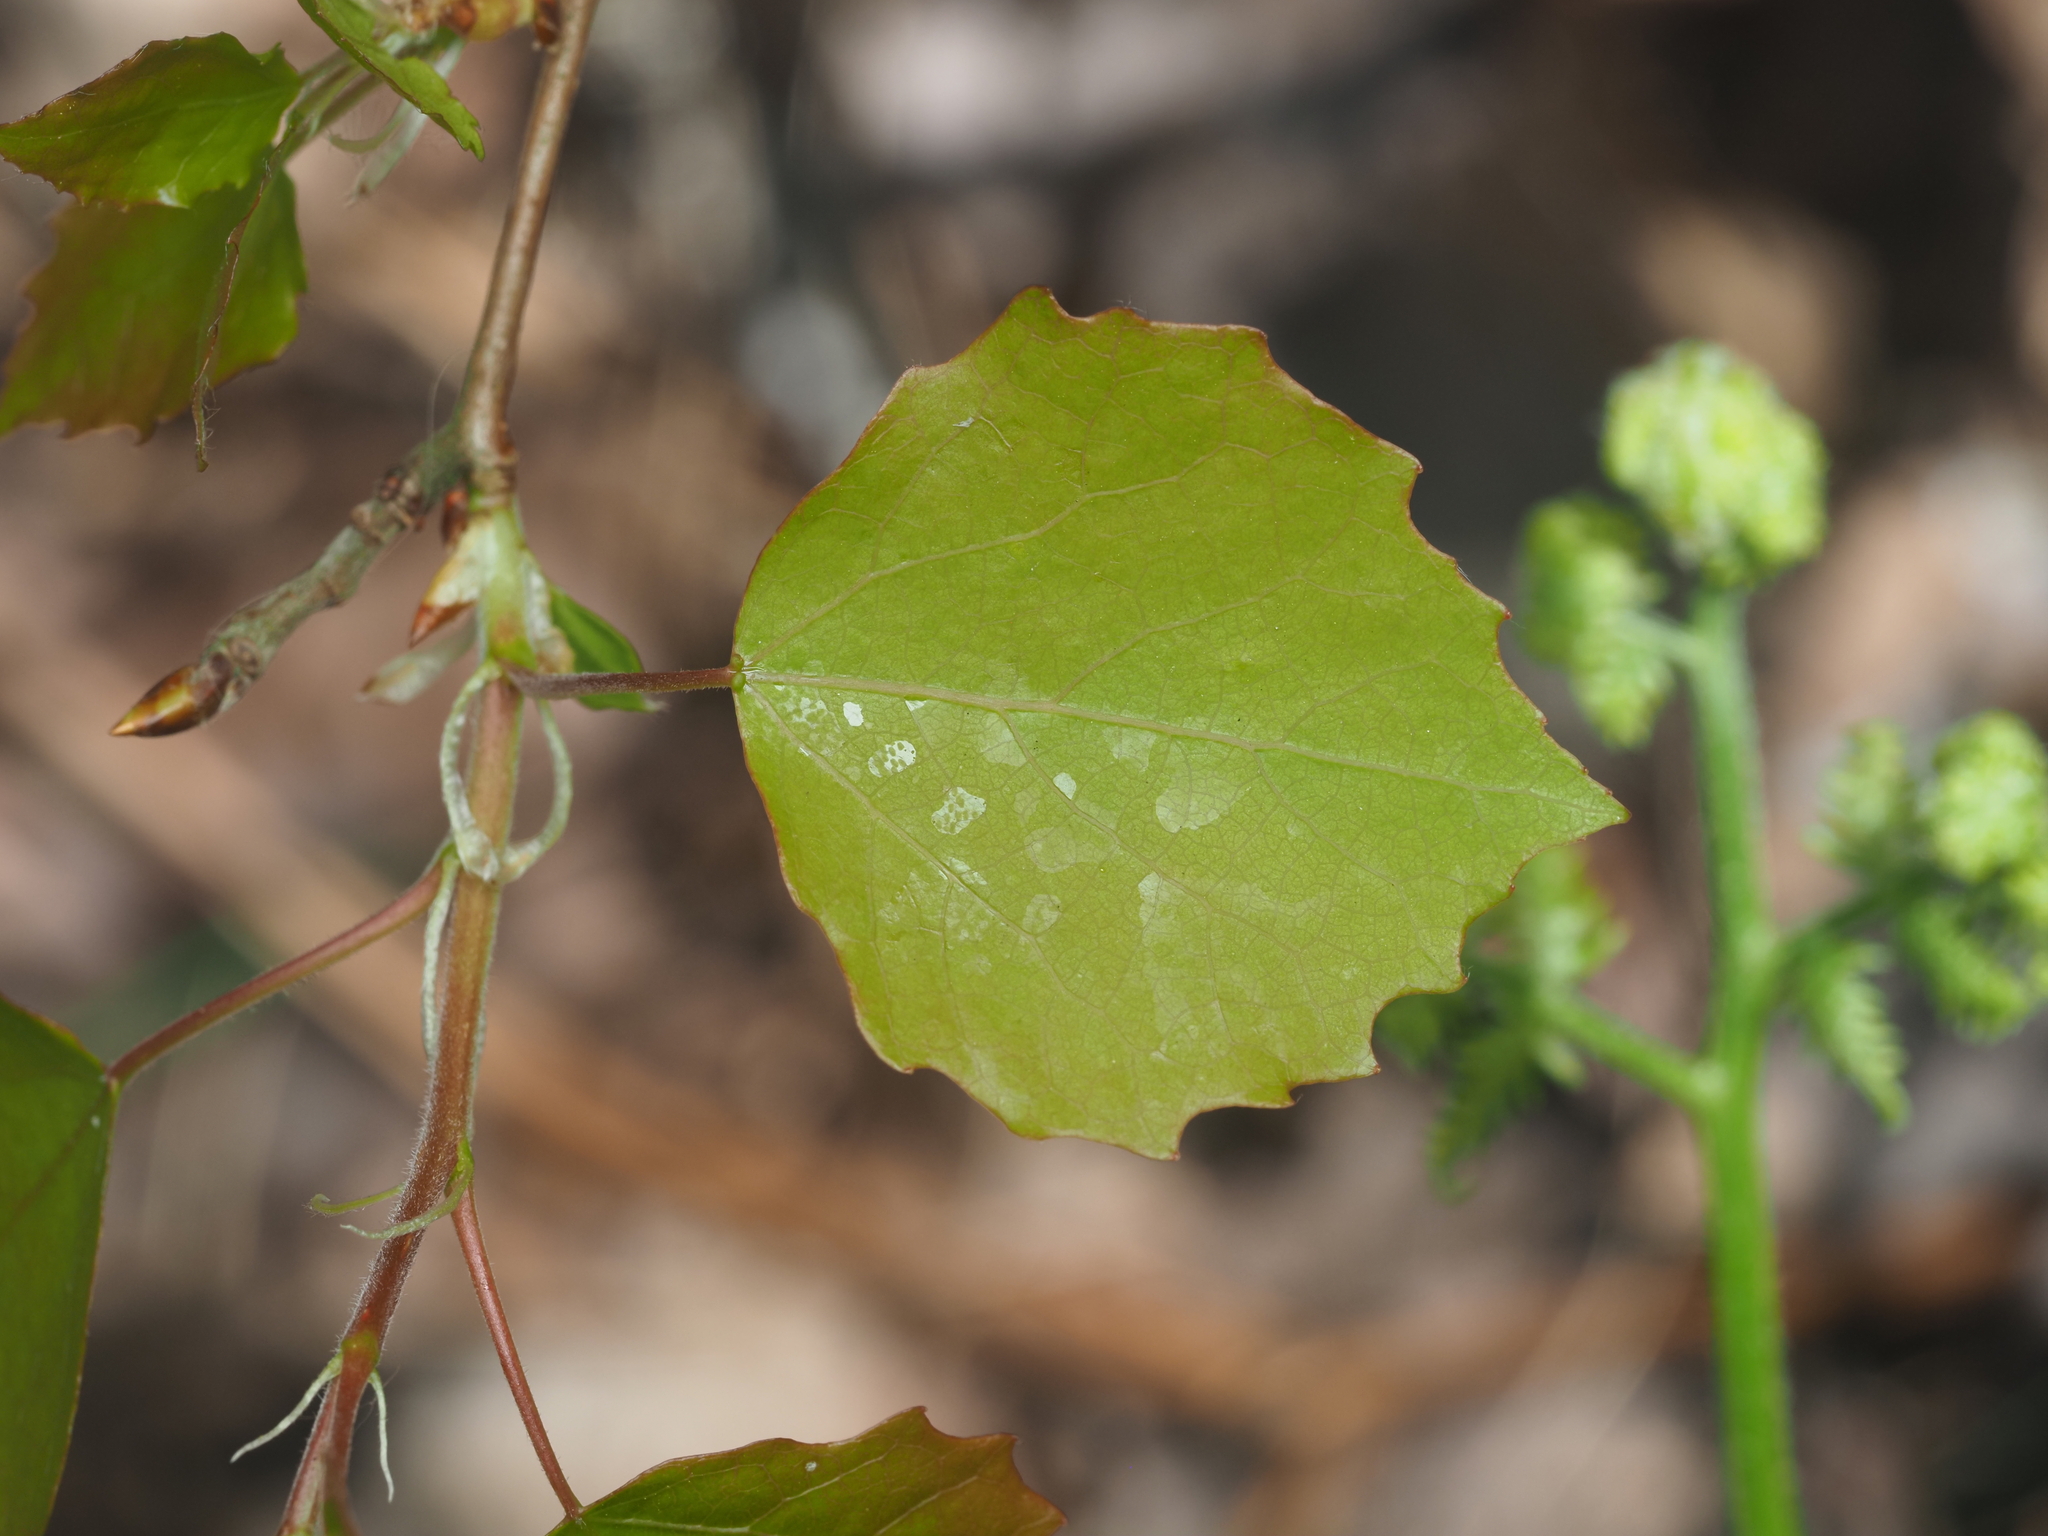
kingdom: Plantae
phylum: Tracheophyta
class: Magnoliopsida
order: Malpighiales
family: Salicaceae
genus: Populus
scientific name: Populus tremula
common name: European aspen
